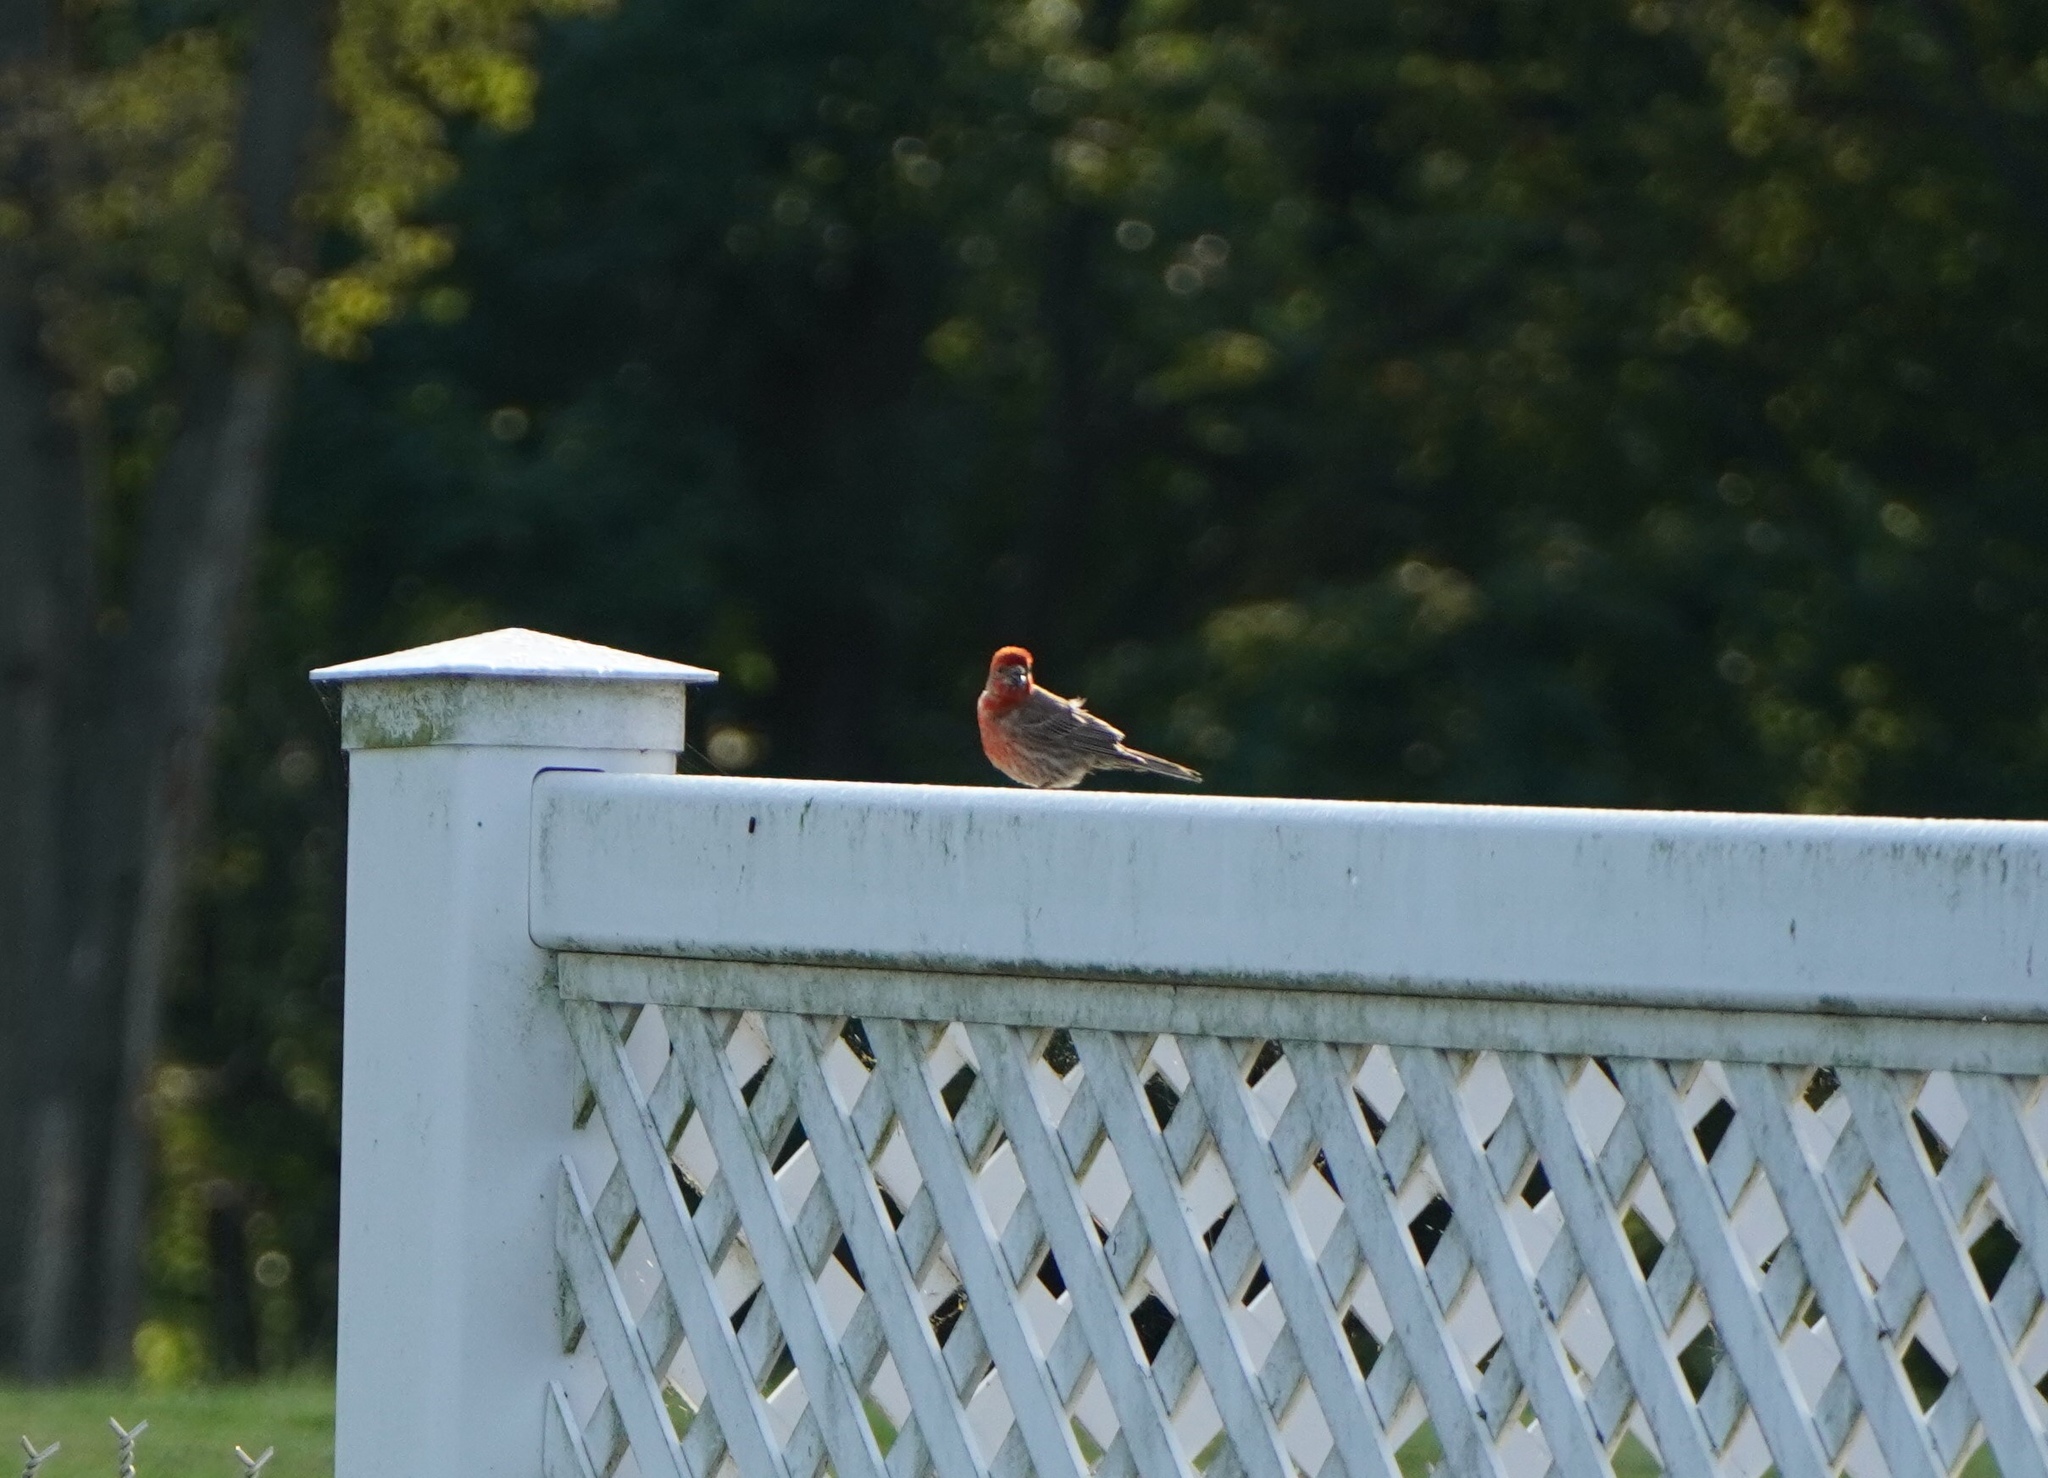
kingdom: Animalia
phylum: Chordata
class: Aves
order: Passeriformes
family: Fringillidae
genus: Haemorhous
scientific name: Haemorhous mexicanus
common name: House finch
